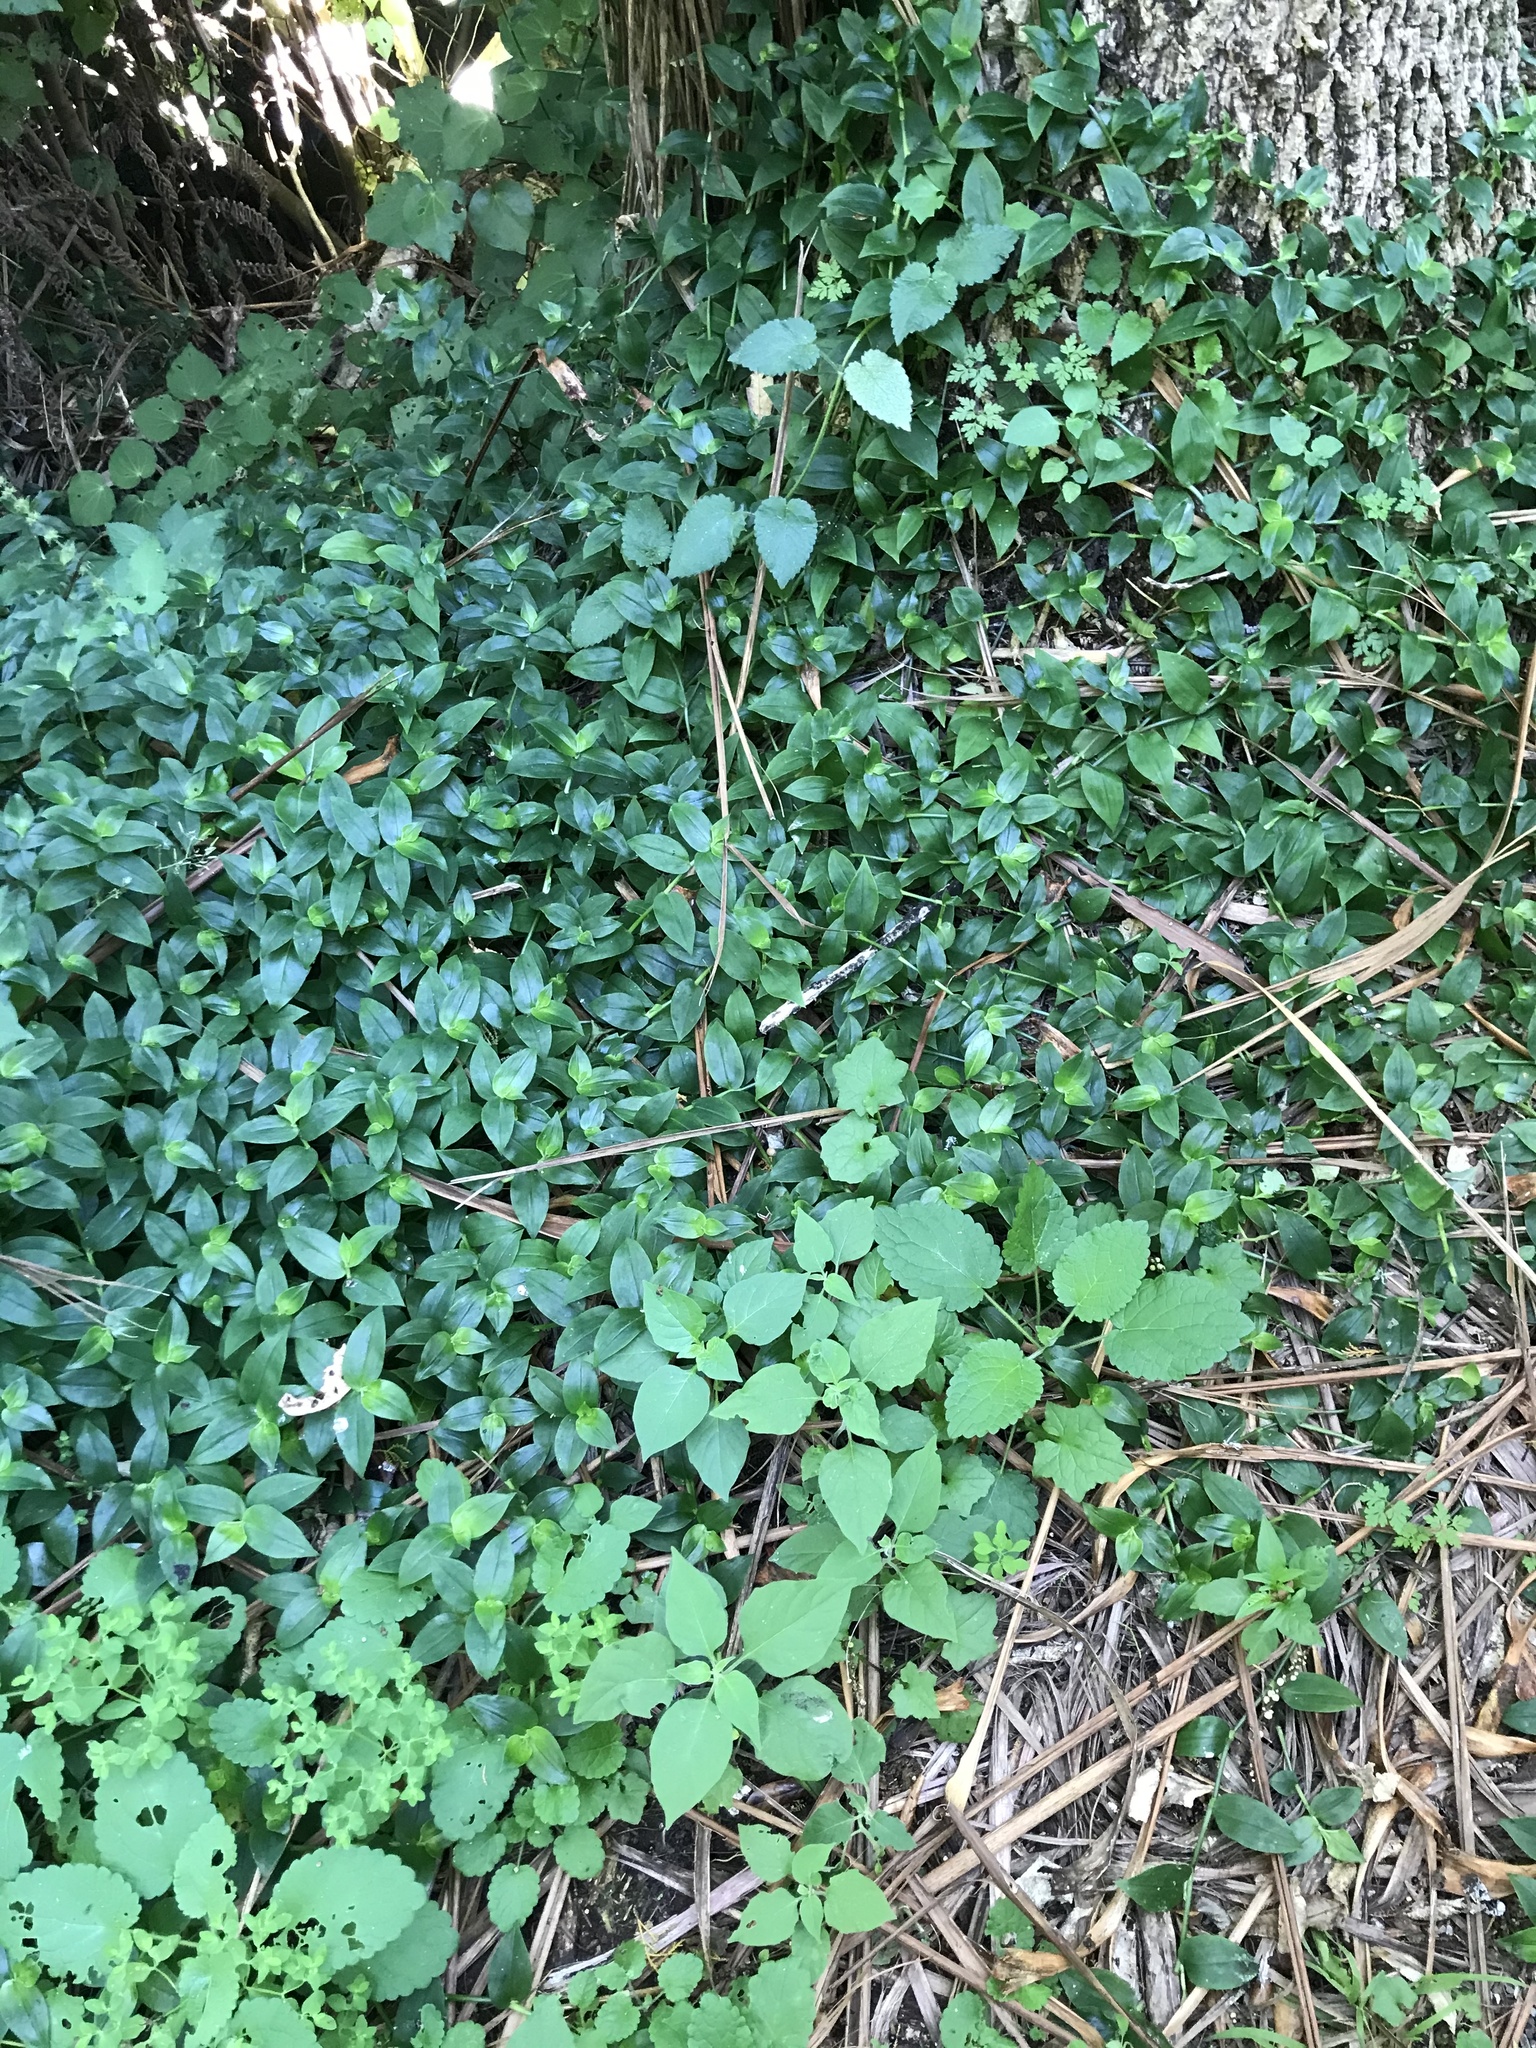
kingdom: Plantae
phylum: Tracheophyta
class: Liliopsida
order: Commelinales
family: Commelinaceae
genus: Tradescantia
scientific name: Tradescantia fluminensis
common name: Wandering-jew
